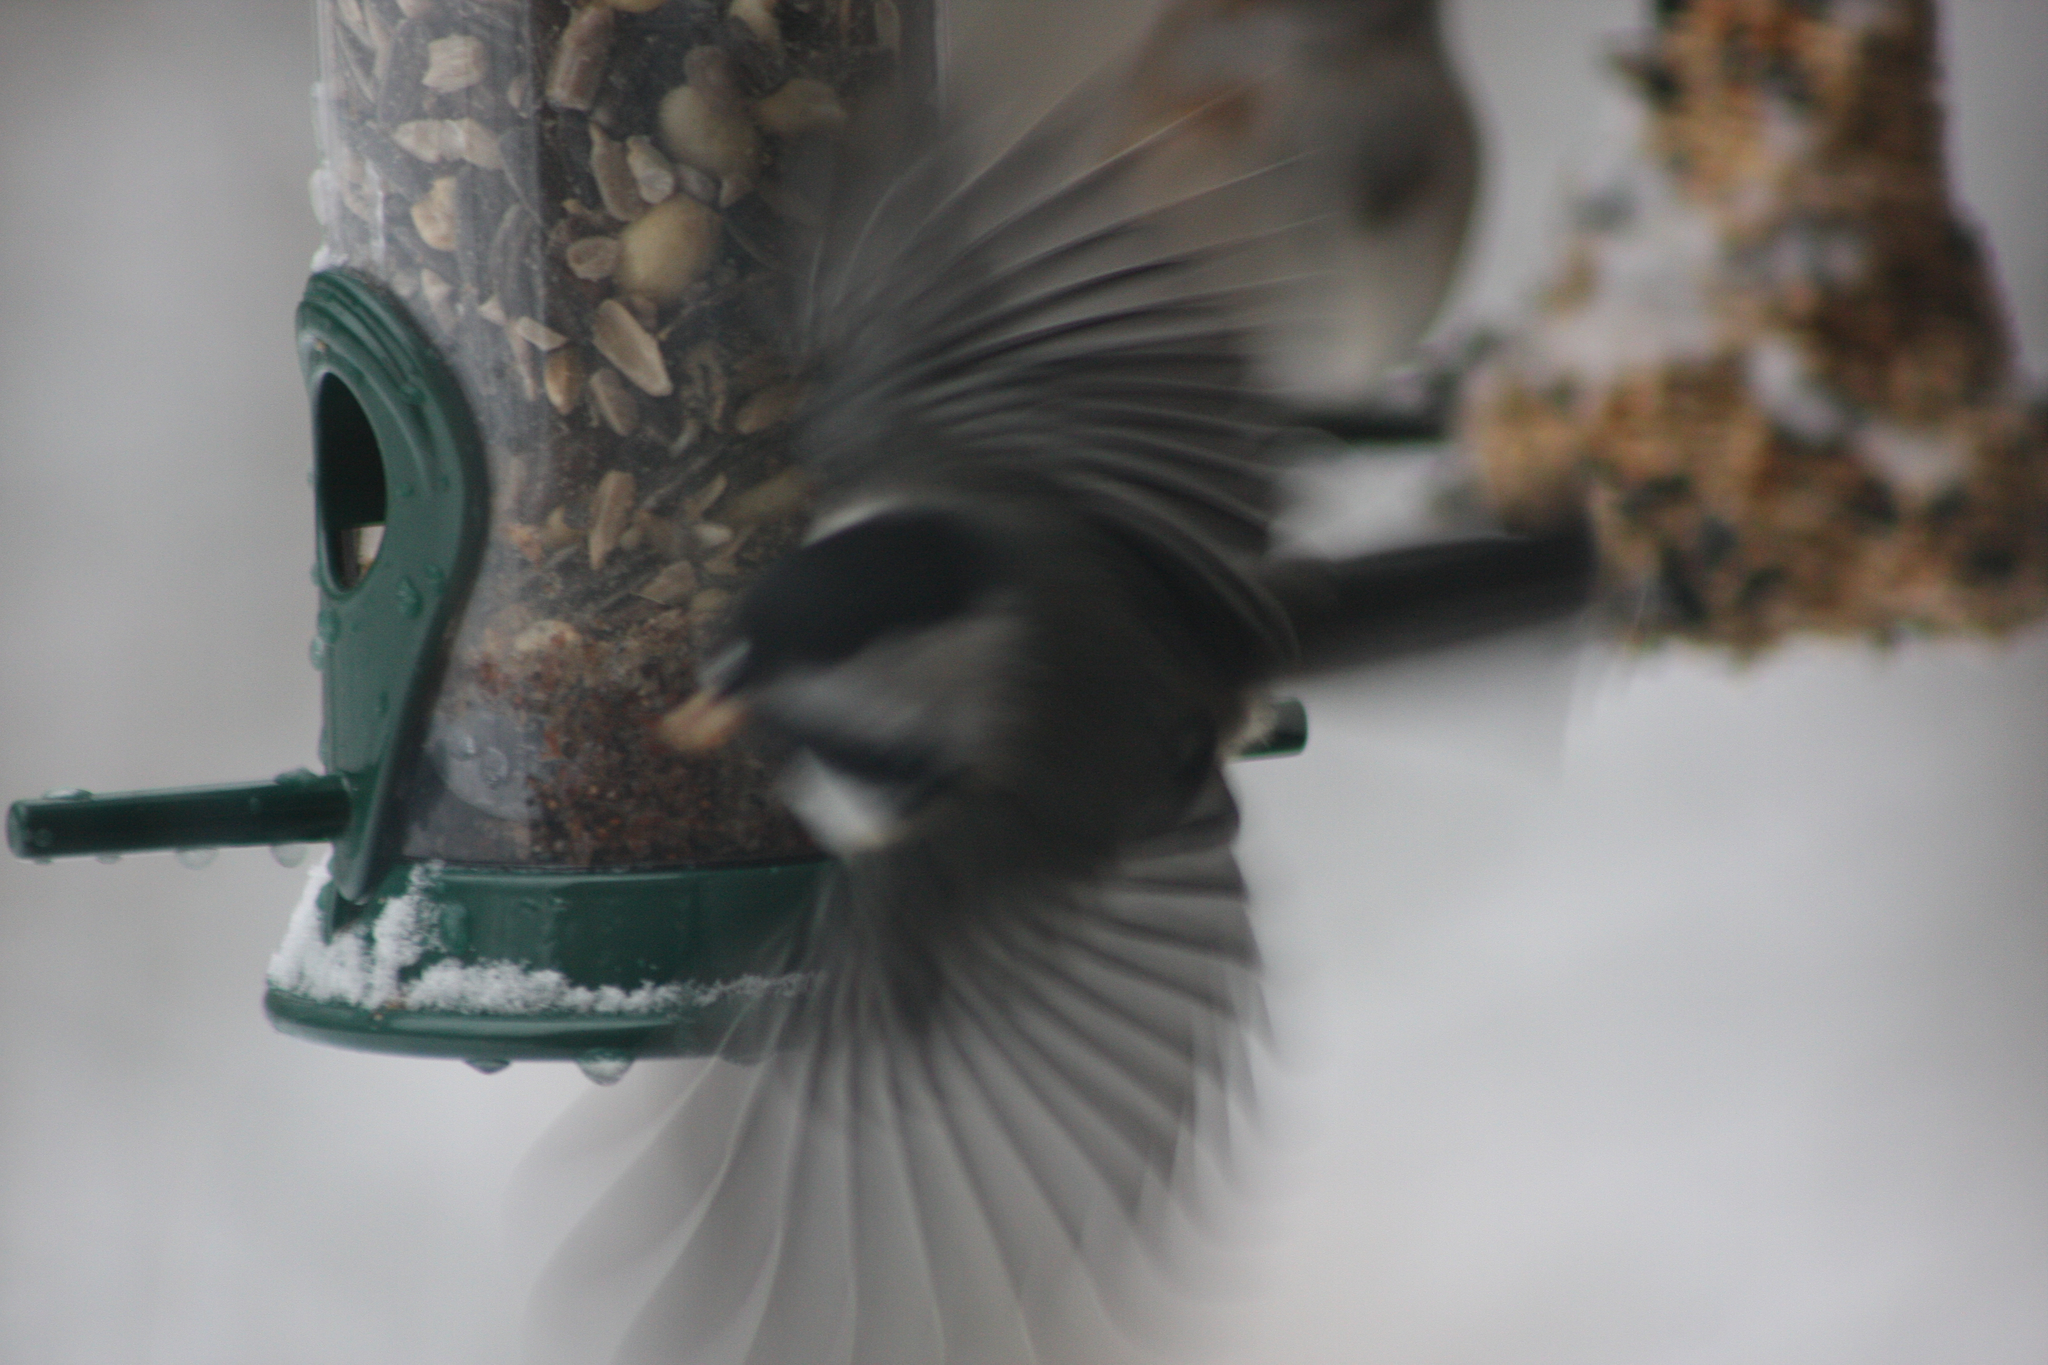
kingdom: Animalia
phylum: Chordata
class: Aves
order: Passeriformes
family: Paridae
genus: Poecile
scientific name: Poecile atricapillus
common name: Black-capped chickadee
